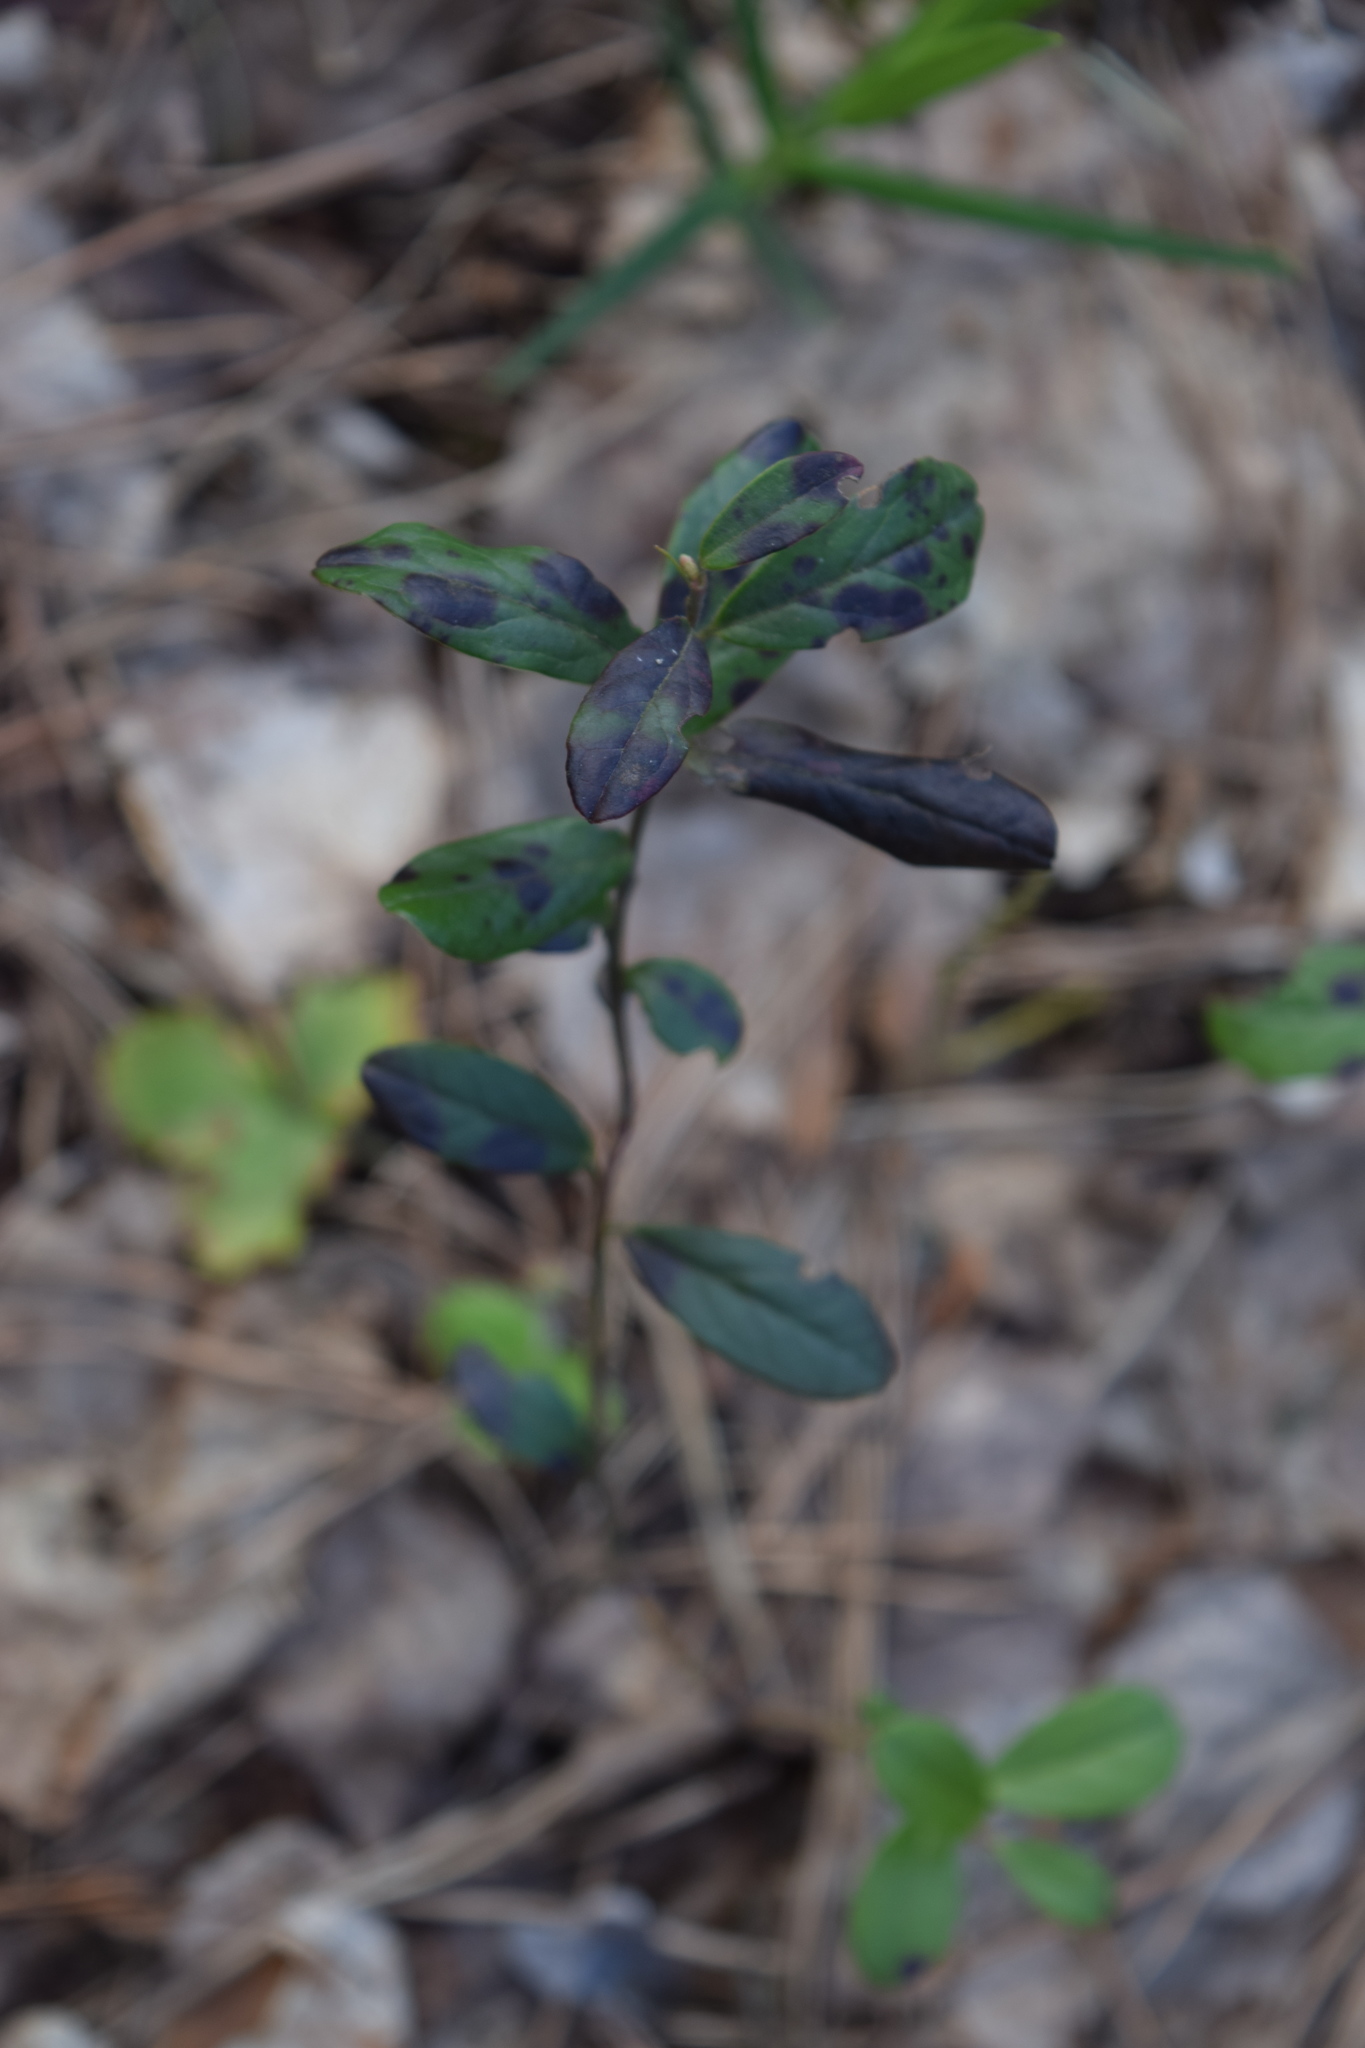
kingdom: Plantae
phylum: Tracheophyta
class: Magnoliopsida
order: Ericales
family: Ericaceae
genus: Vaccinium
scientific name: Vaccinium vitis-idaea
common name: Cowberry
